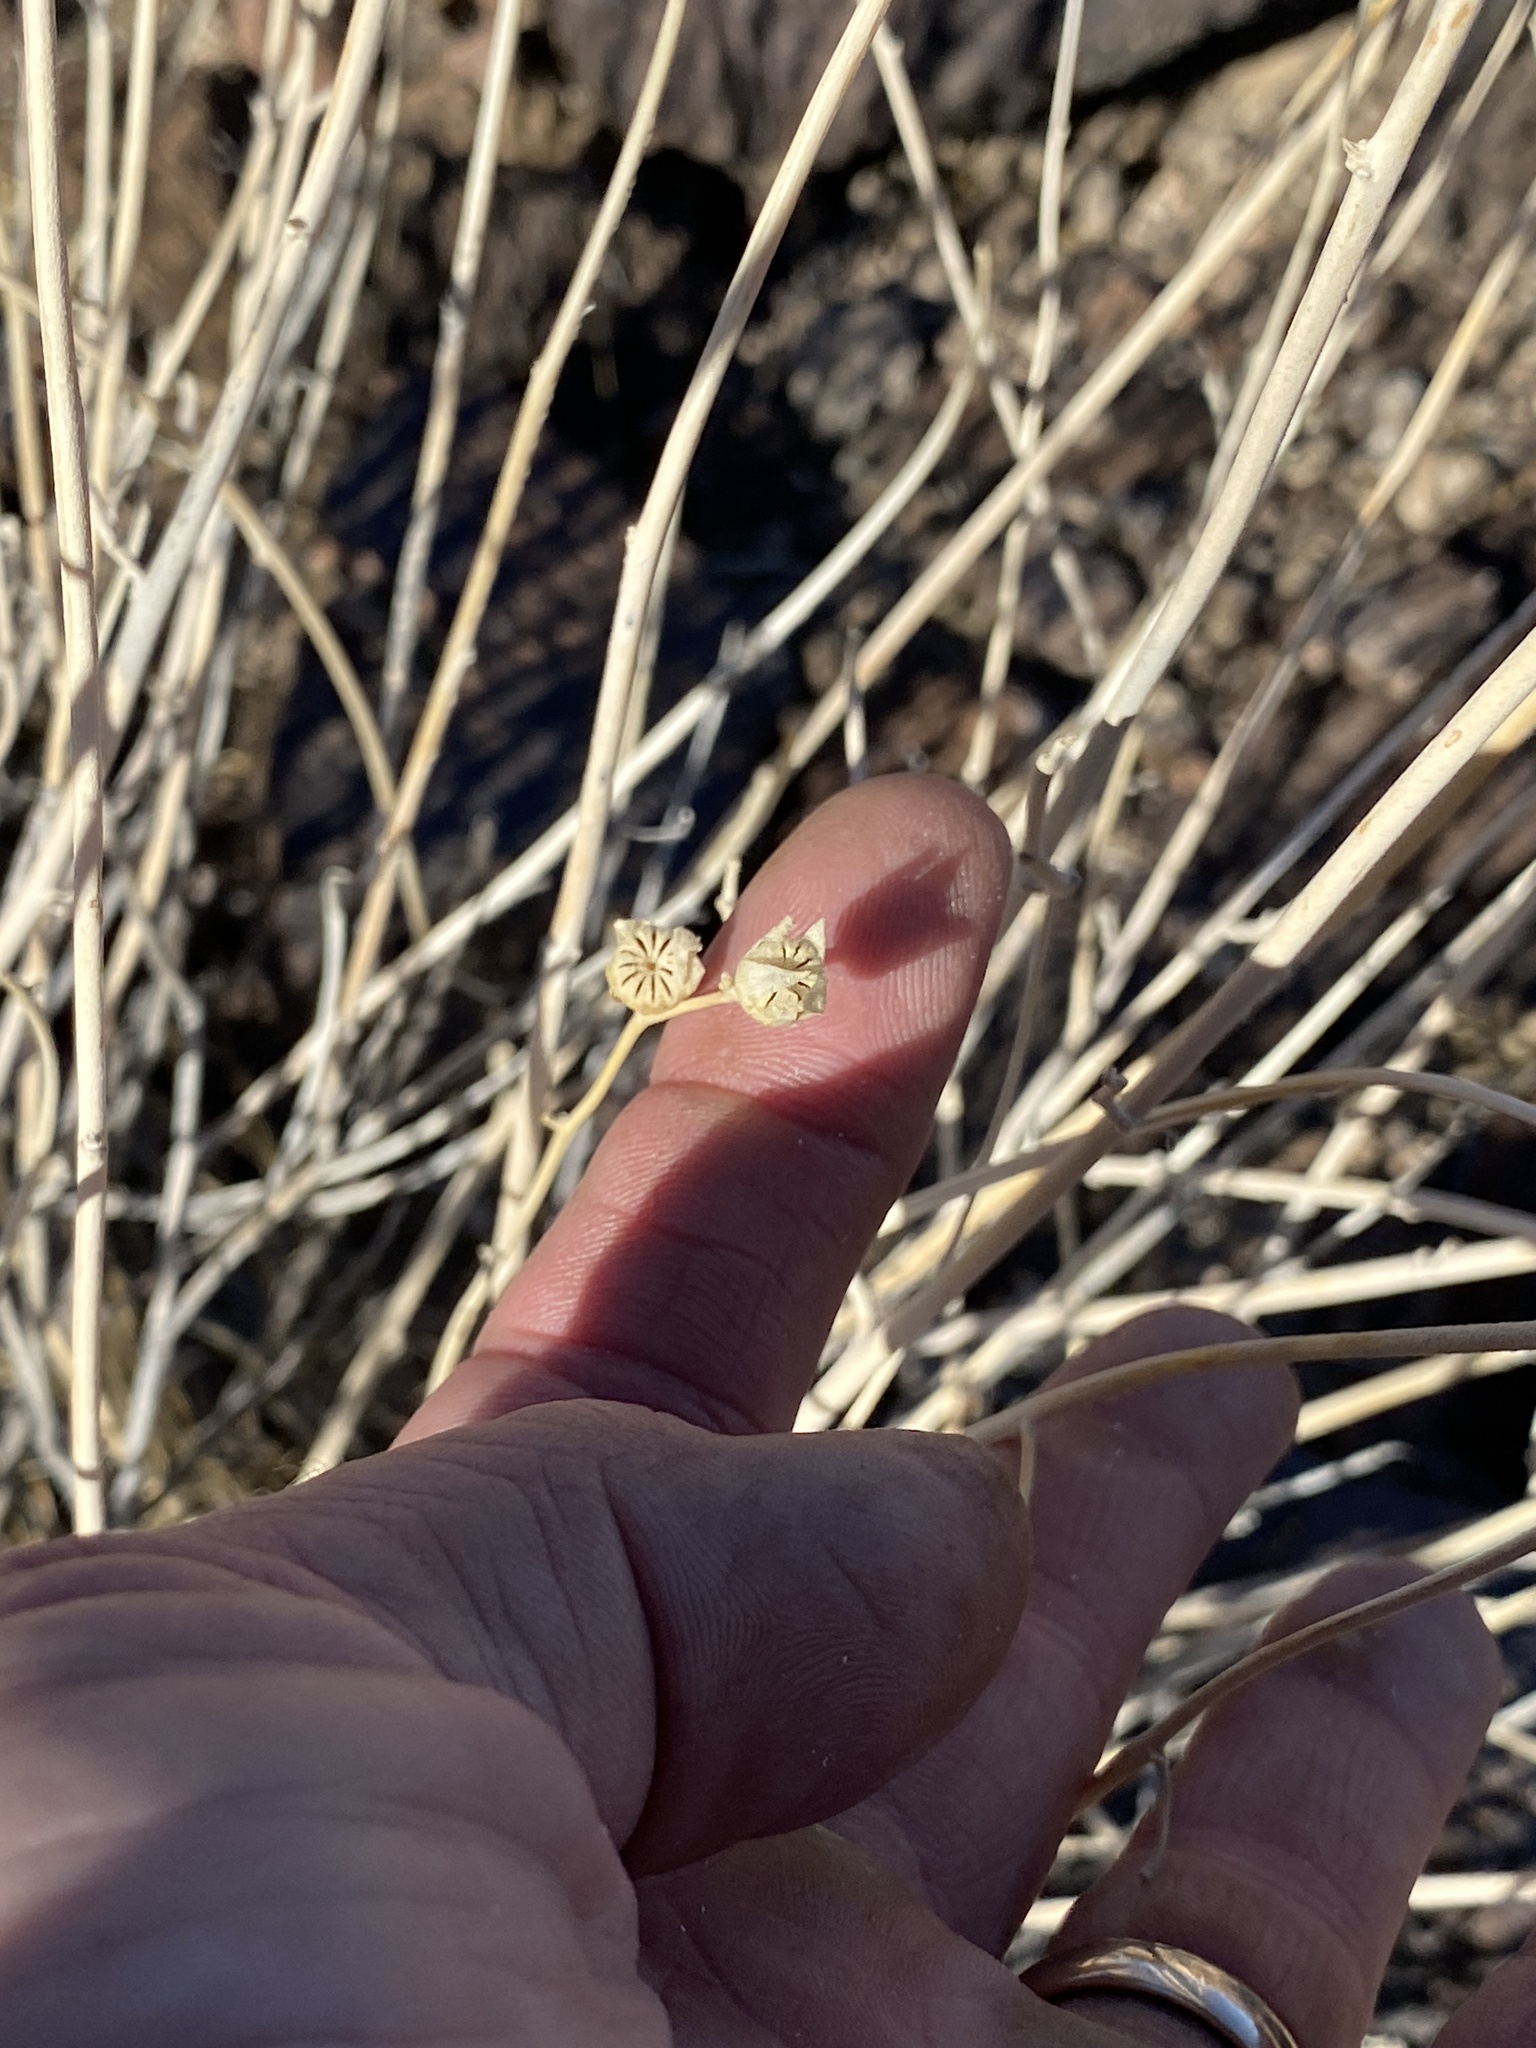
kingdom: Plantae
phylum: Tracheophyta
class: Magnoliopsida
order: Malvales
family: Malvaceae
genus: Sphaeralcea
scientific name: Sphaeralcea ambigua
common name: Apricot globe-mallow
